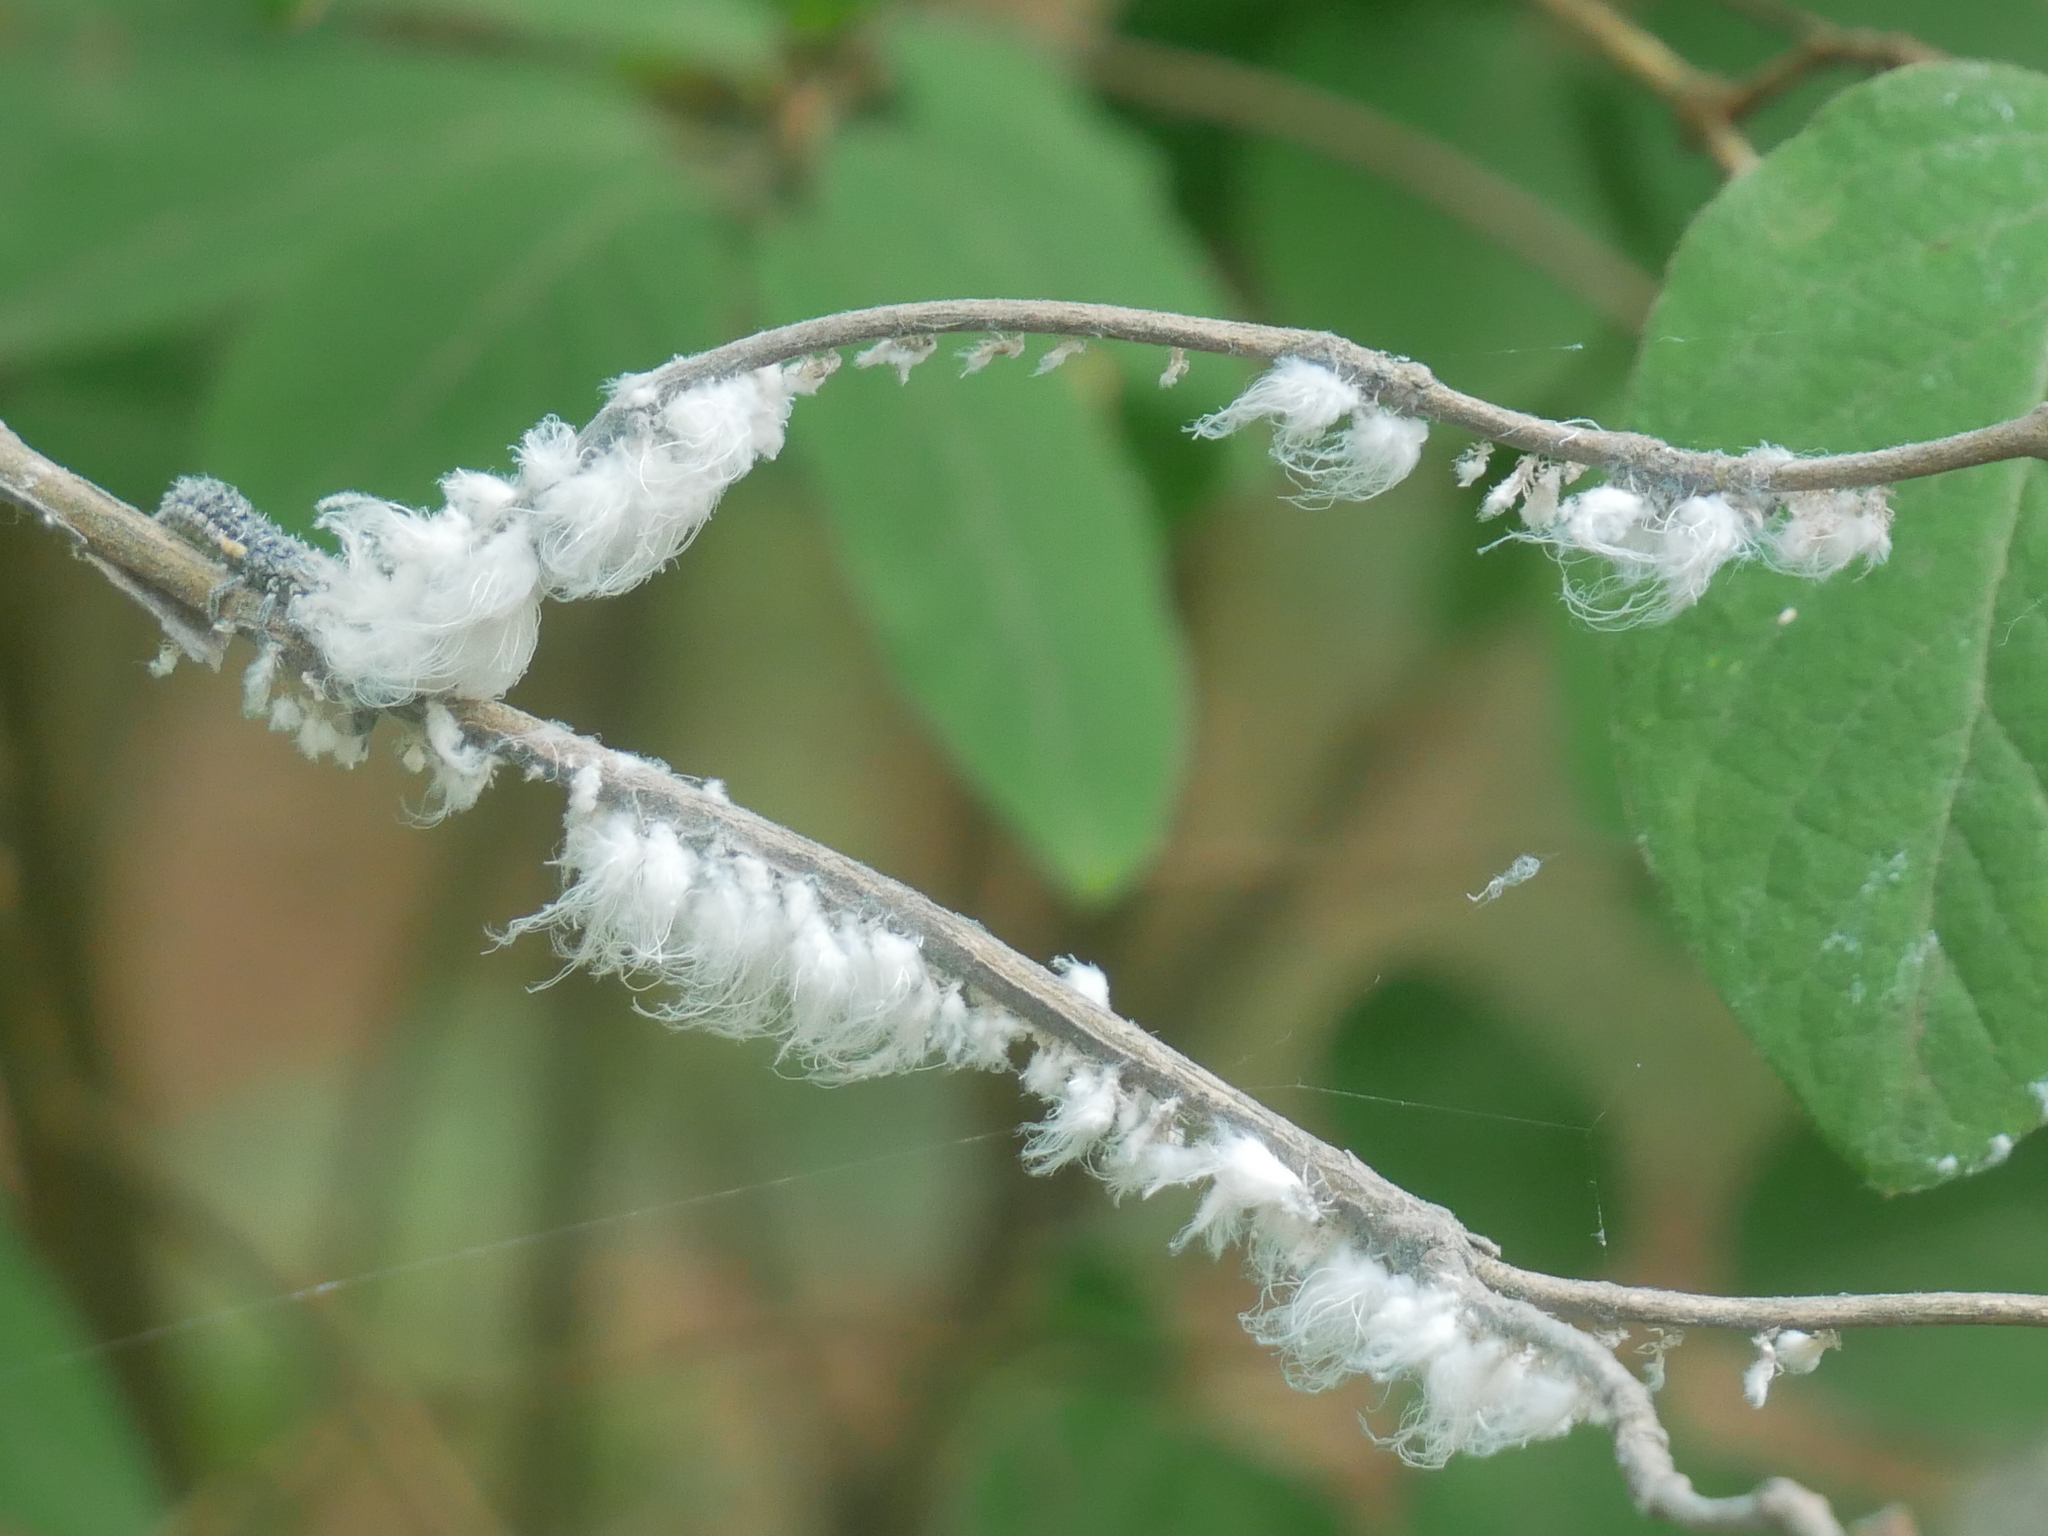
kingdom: Animalia
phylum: Arthropoda
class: Insecta
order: Hemiptera
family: Aphididae
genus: Prociphilus
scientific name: Prociphilus xylostei
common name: Aphid
